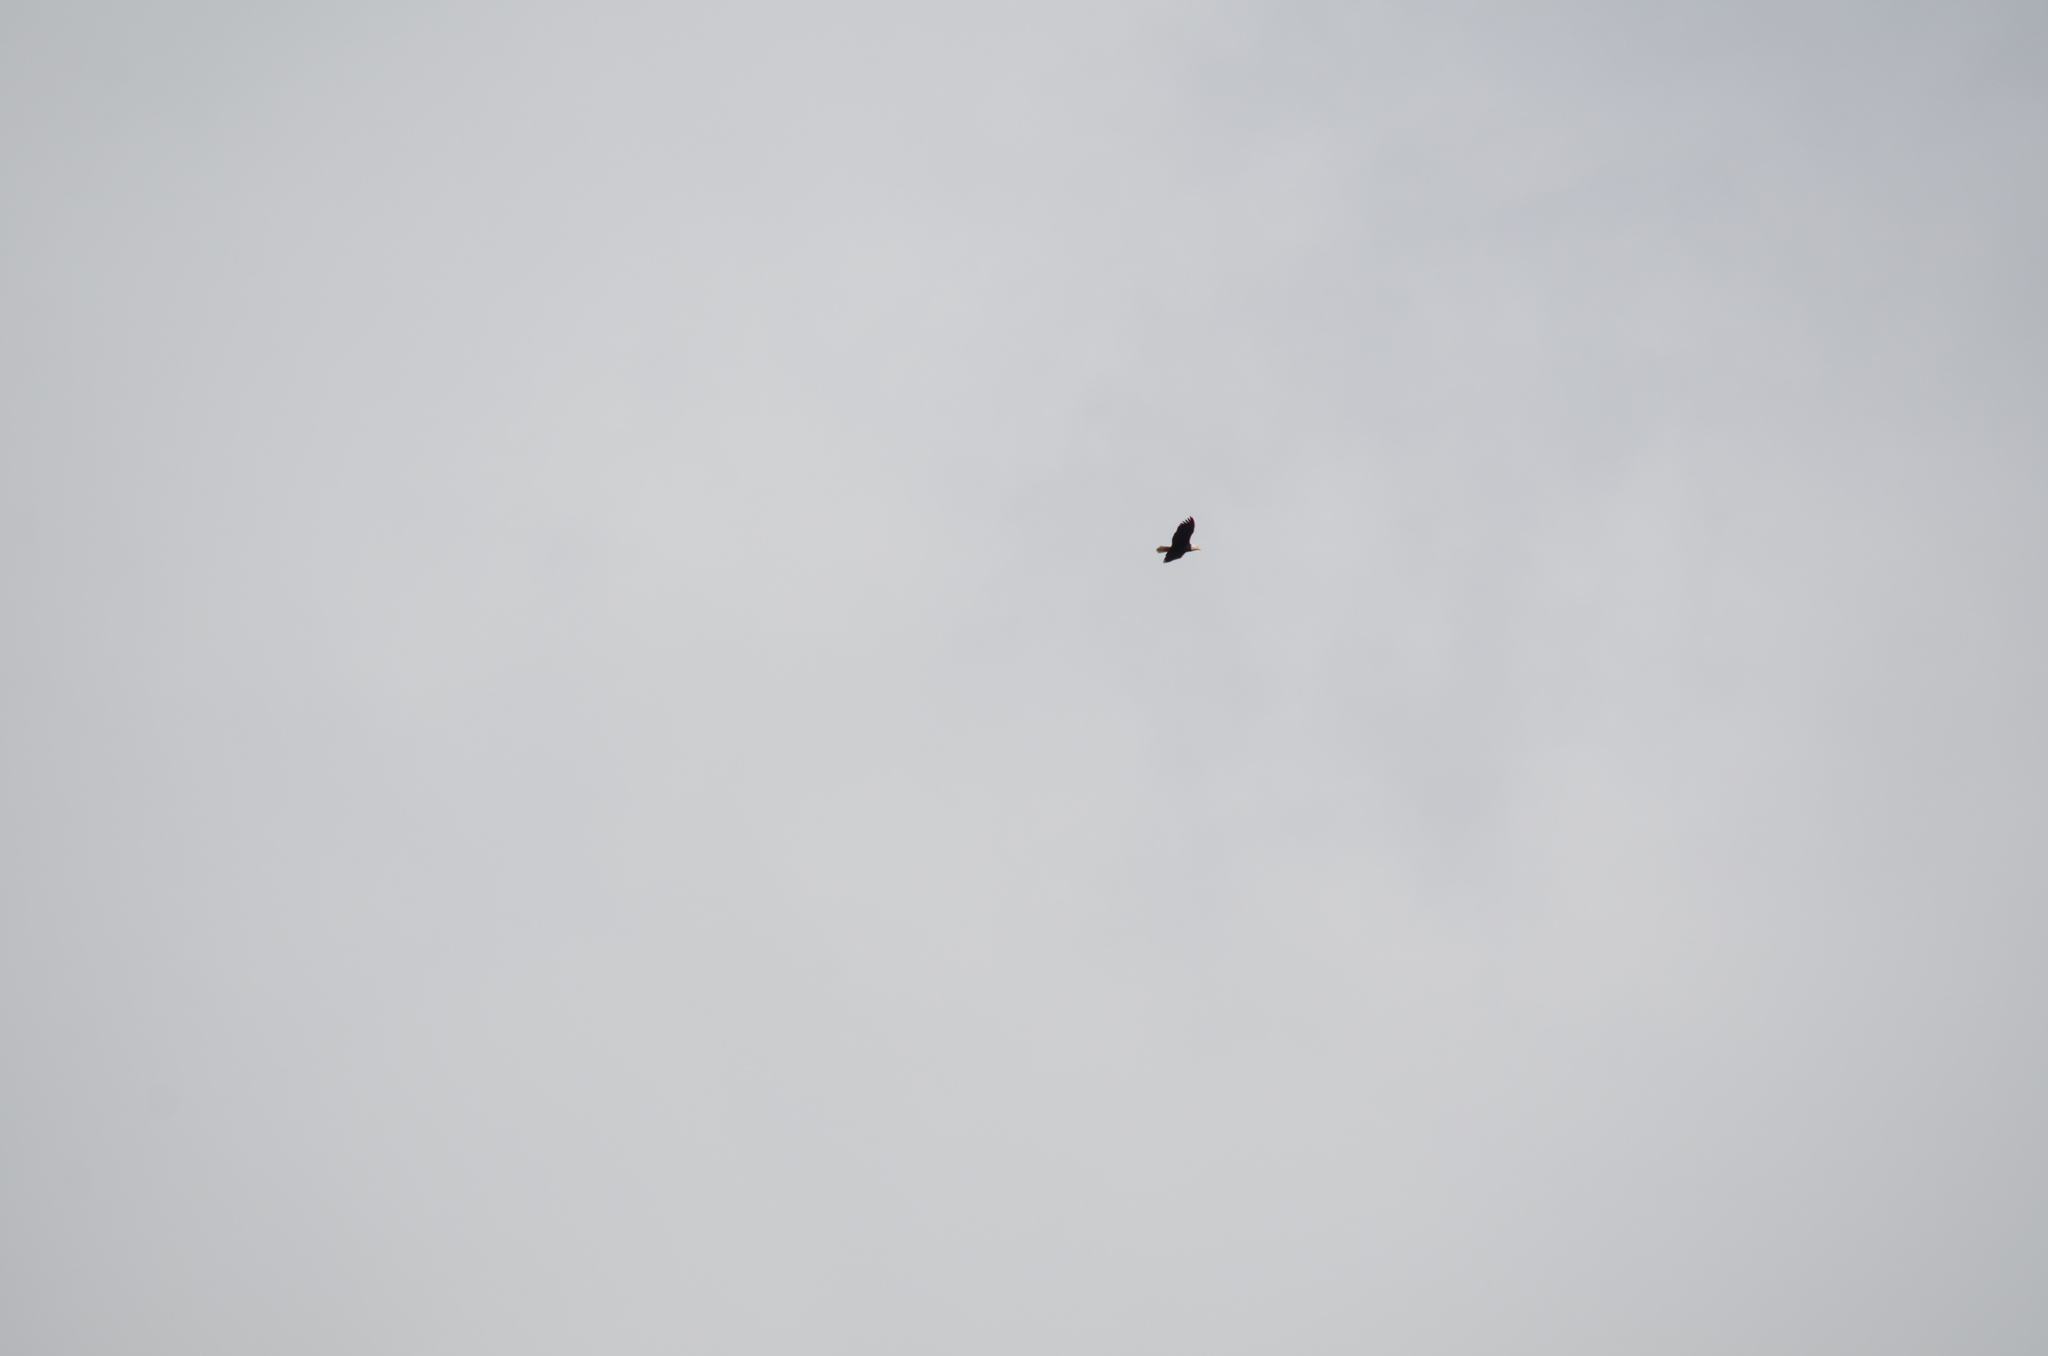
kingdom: Animalia
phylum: Chordata
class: Aves
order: Accipitriformes
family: Accipitridae
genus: Haliaeetus
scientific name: Haliaeetus leucocephalus
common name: Bald eagle
